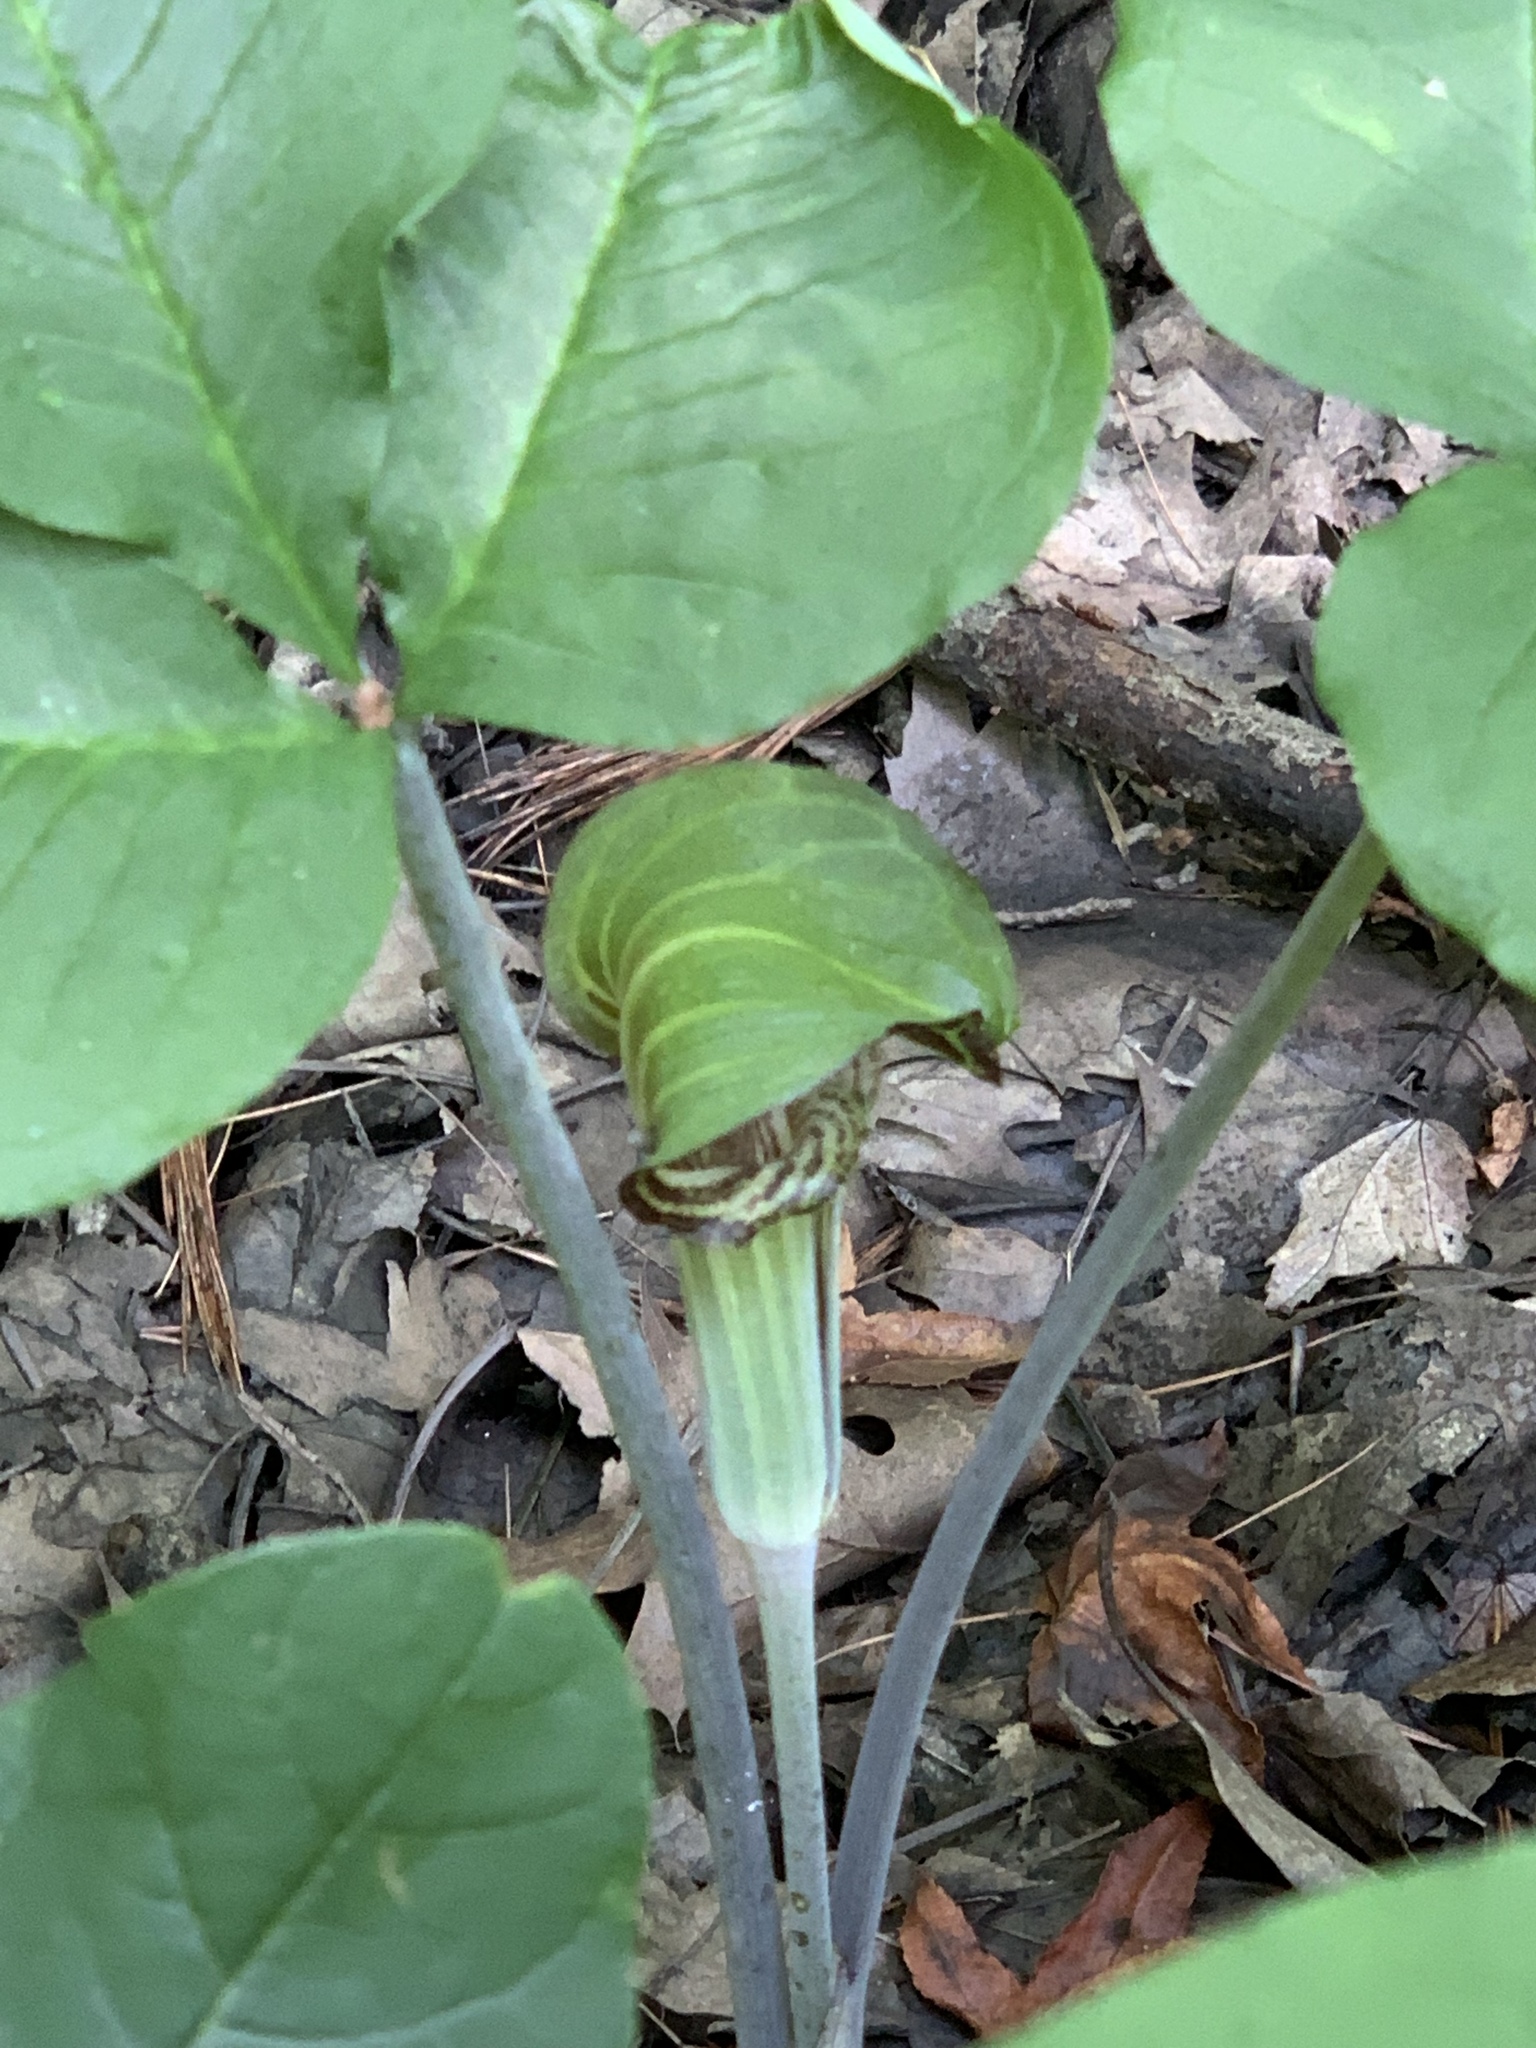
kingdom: Plantae
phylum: Tracheophyta
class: Liliopsida
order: Alismatales
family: Araceae
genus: Arisaema
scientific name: Arisaema triphyllum
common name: Jack-in-the-pulpit
